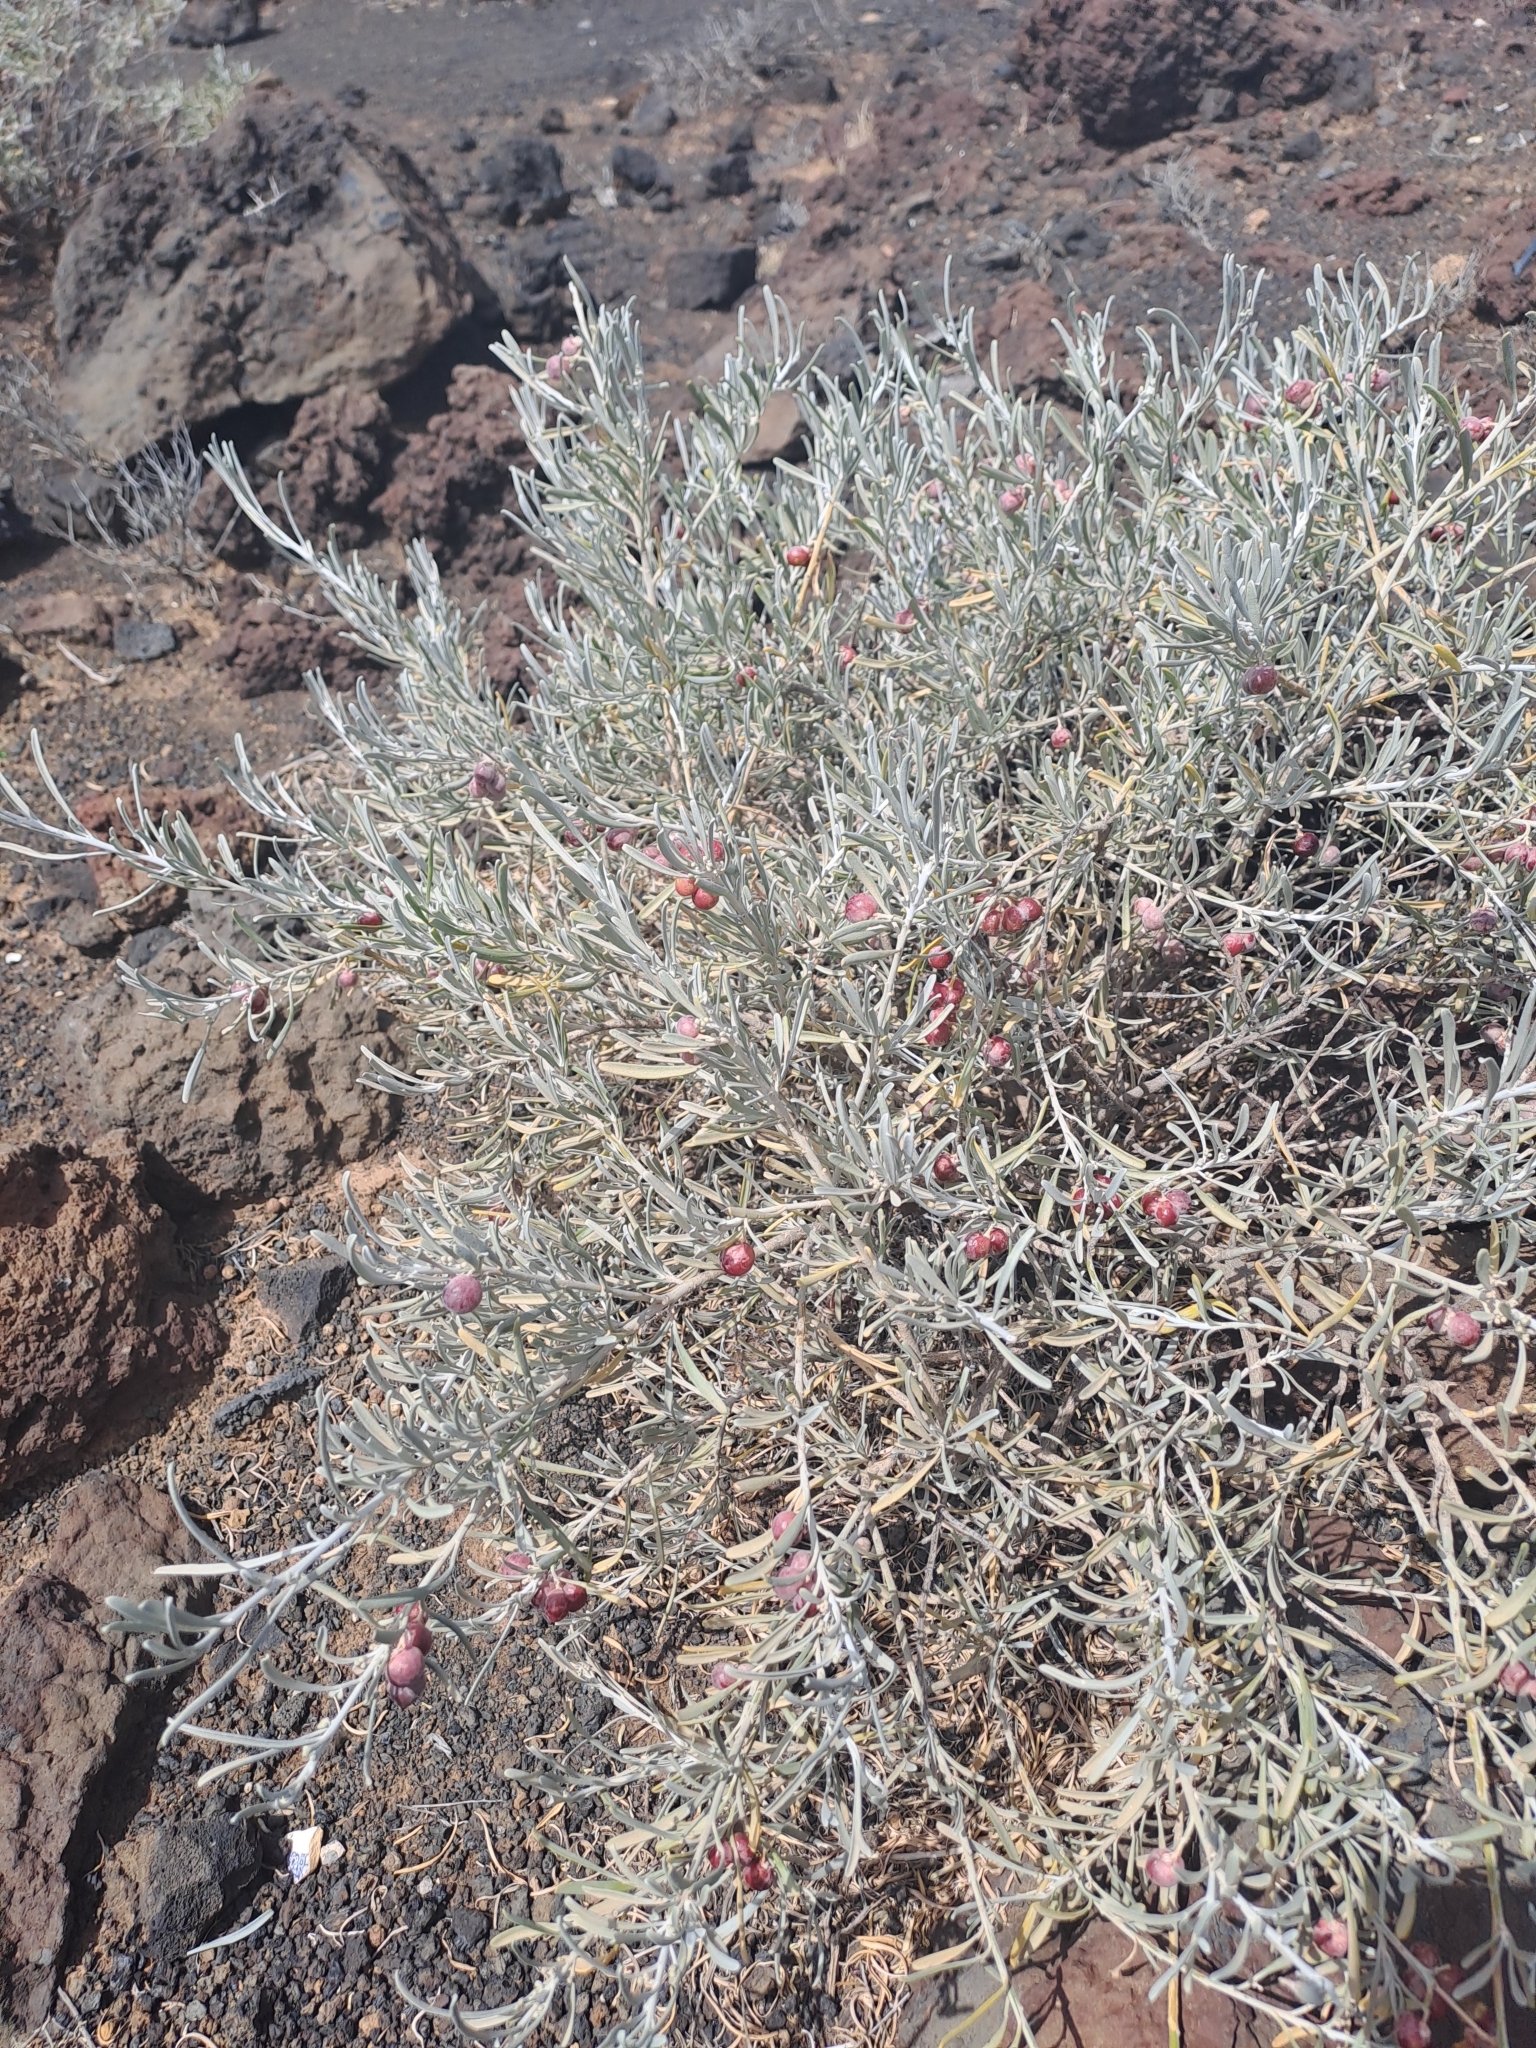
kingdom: Plantae
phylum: Tracheophyta
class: Magnoliopsida
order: Sapindales
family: Rutaceae
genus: Cneorum
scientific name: Cneorum pulverulentum
